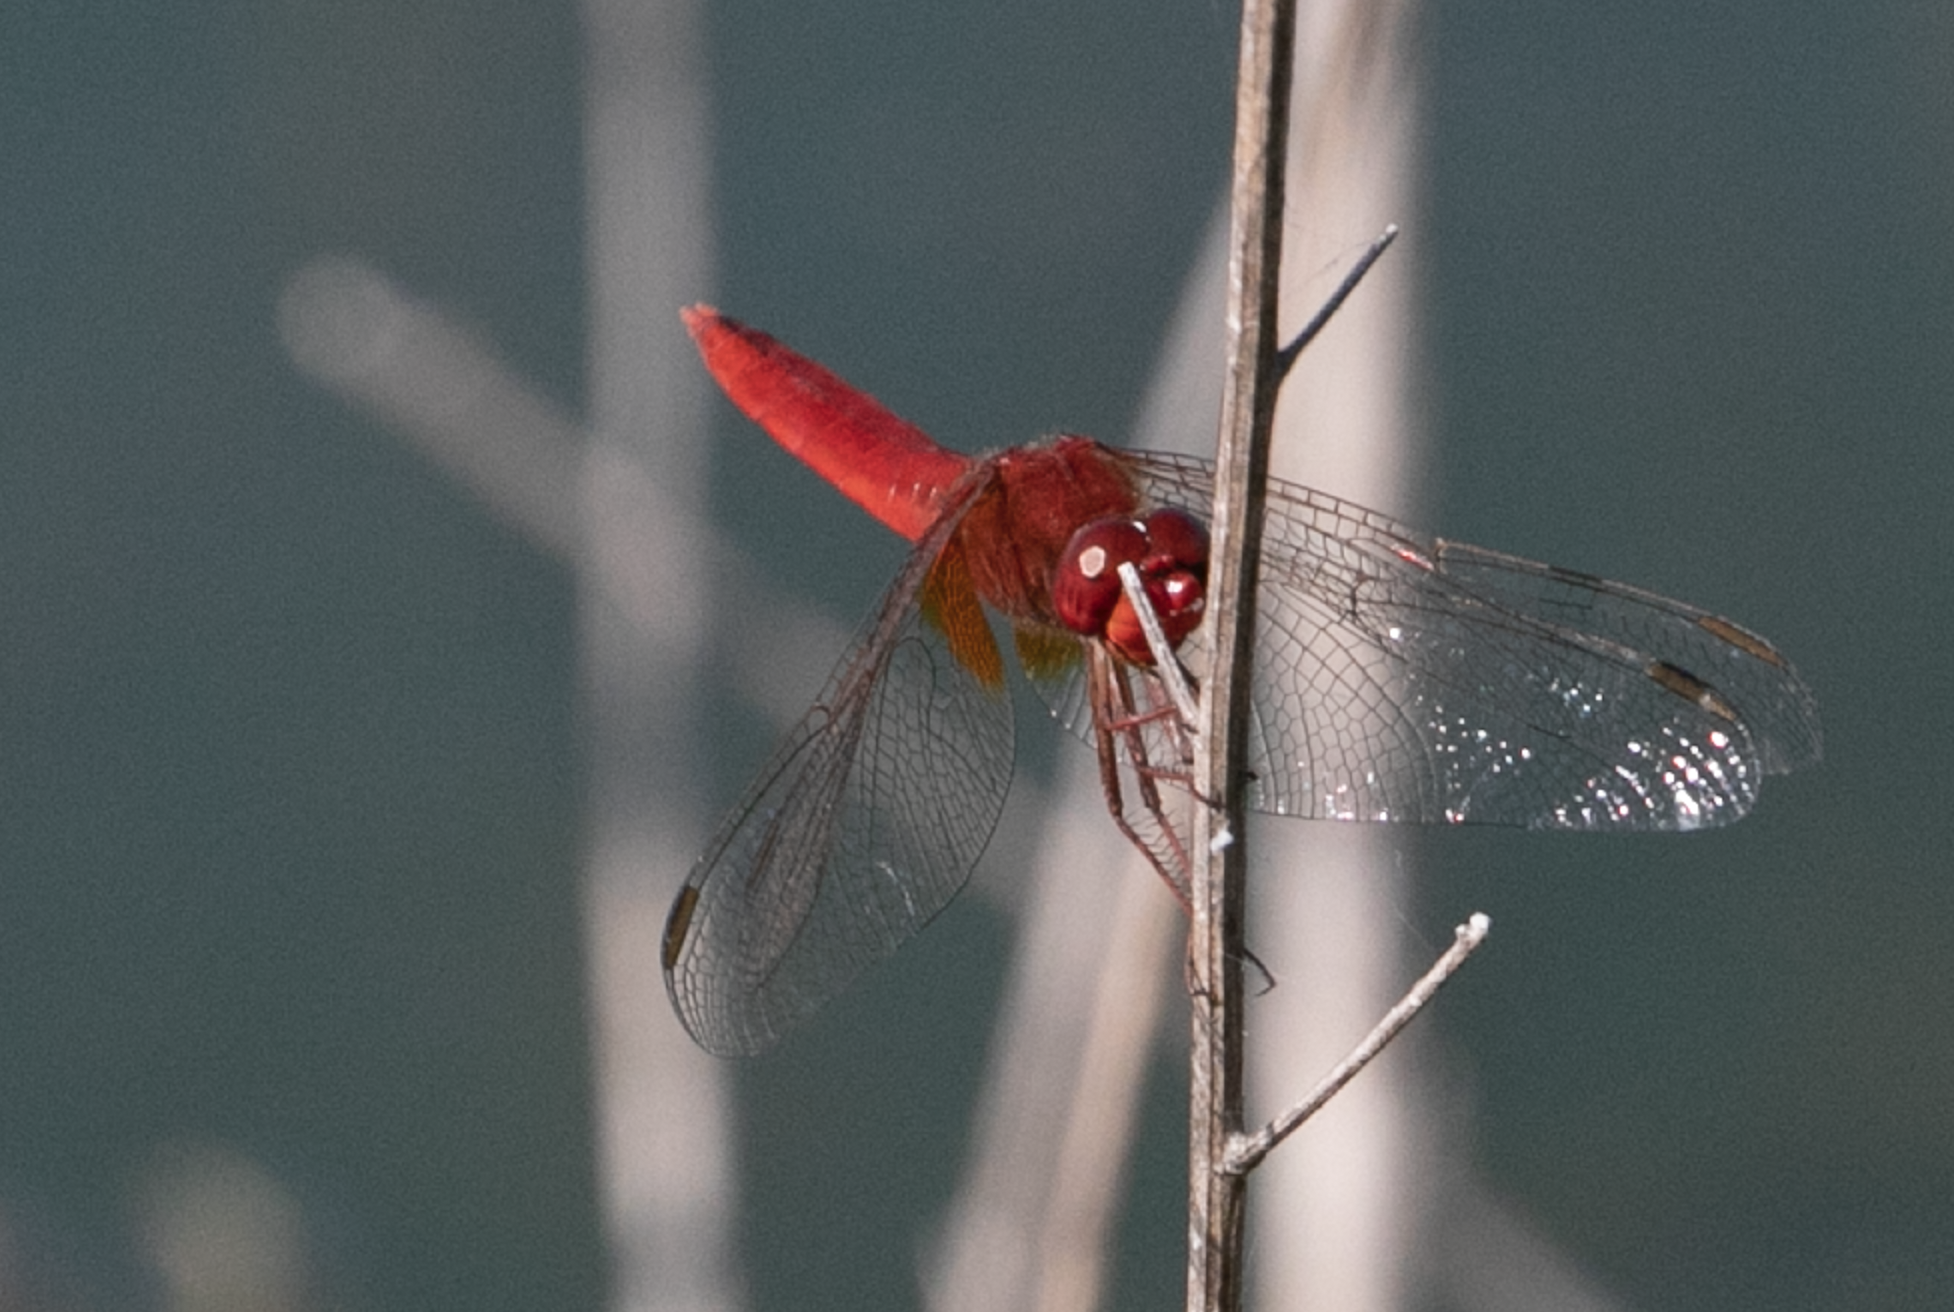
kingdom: Animalia
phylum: Arthropoda
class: Insecta
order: Odonata
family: Libellulidae
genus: Crocothemis
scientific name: Crocothemis erythraea
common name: Scarlet dragonfly
